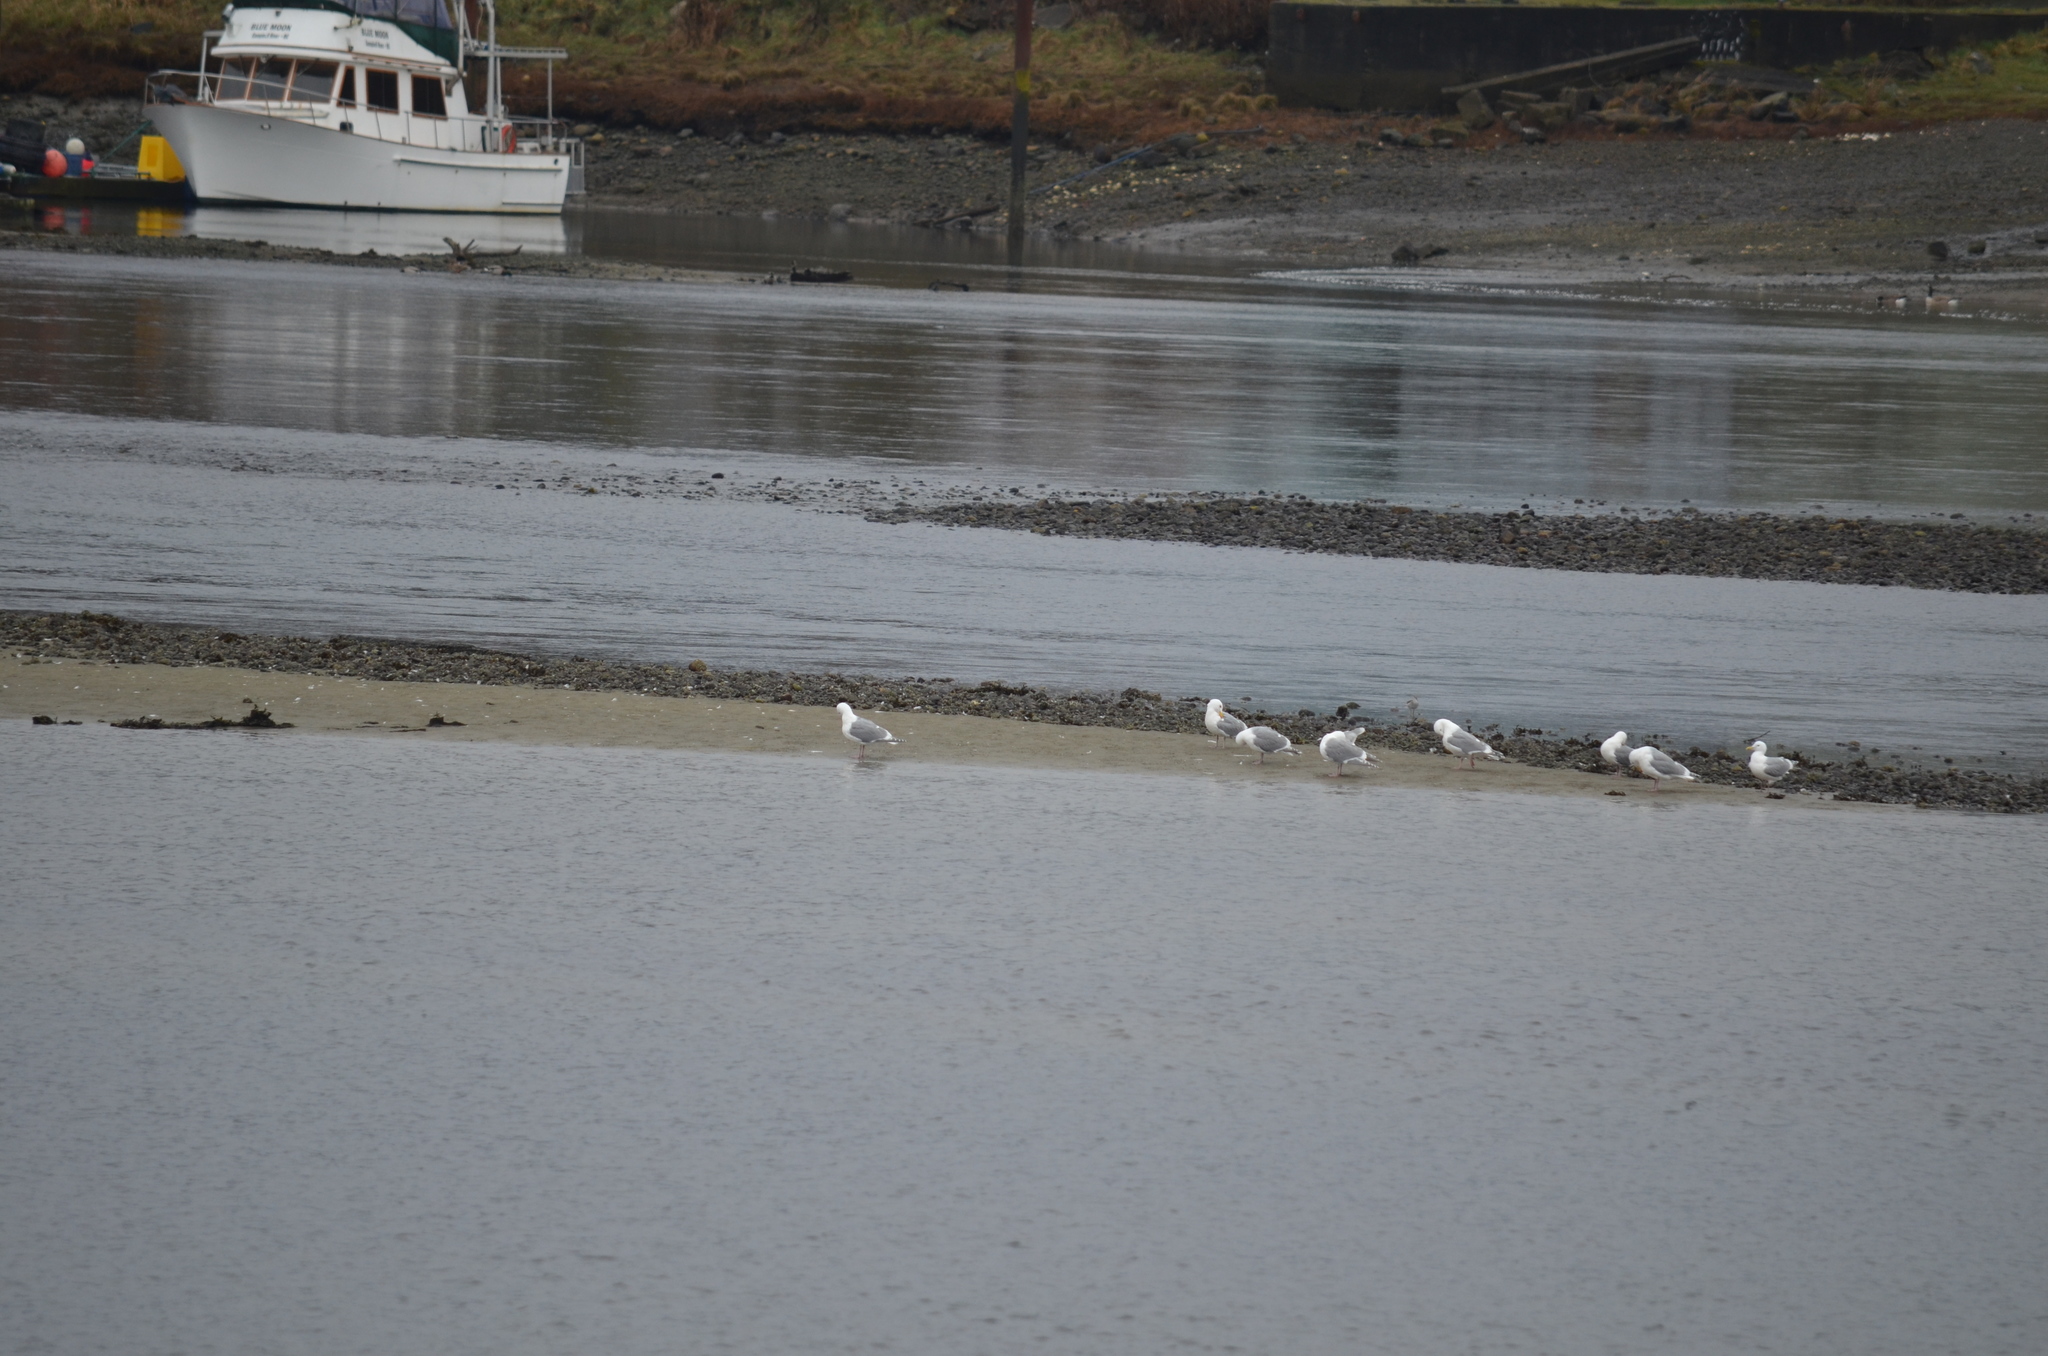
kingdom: Animalia
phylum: Chordata
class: Aves
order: Charadriiformes
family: Laridae
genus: Larus
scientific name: Larus
